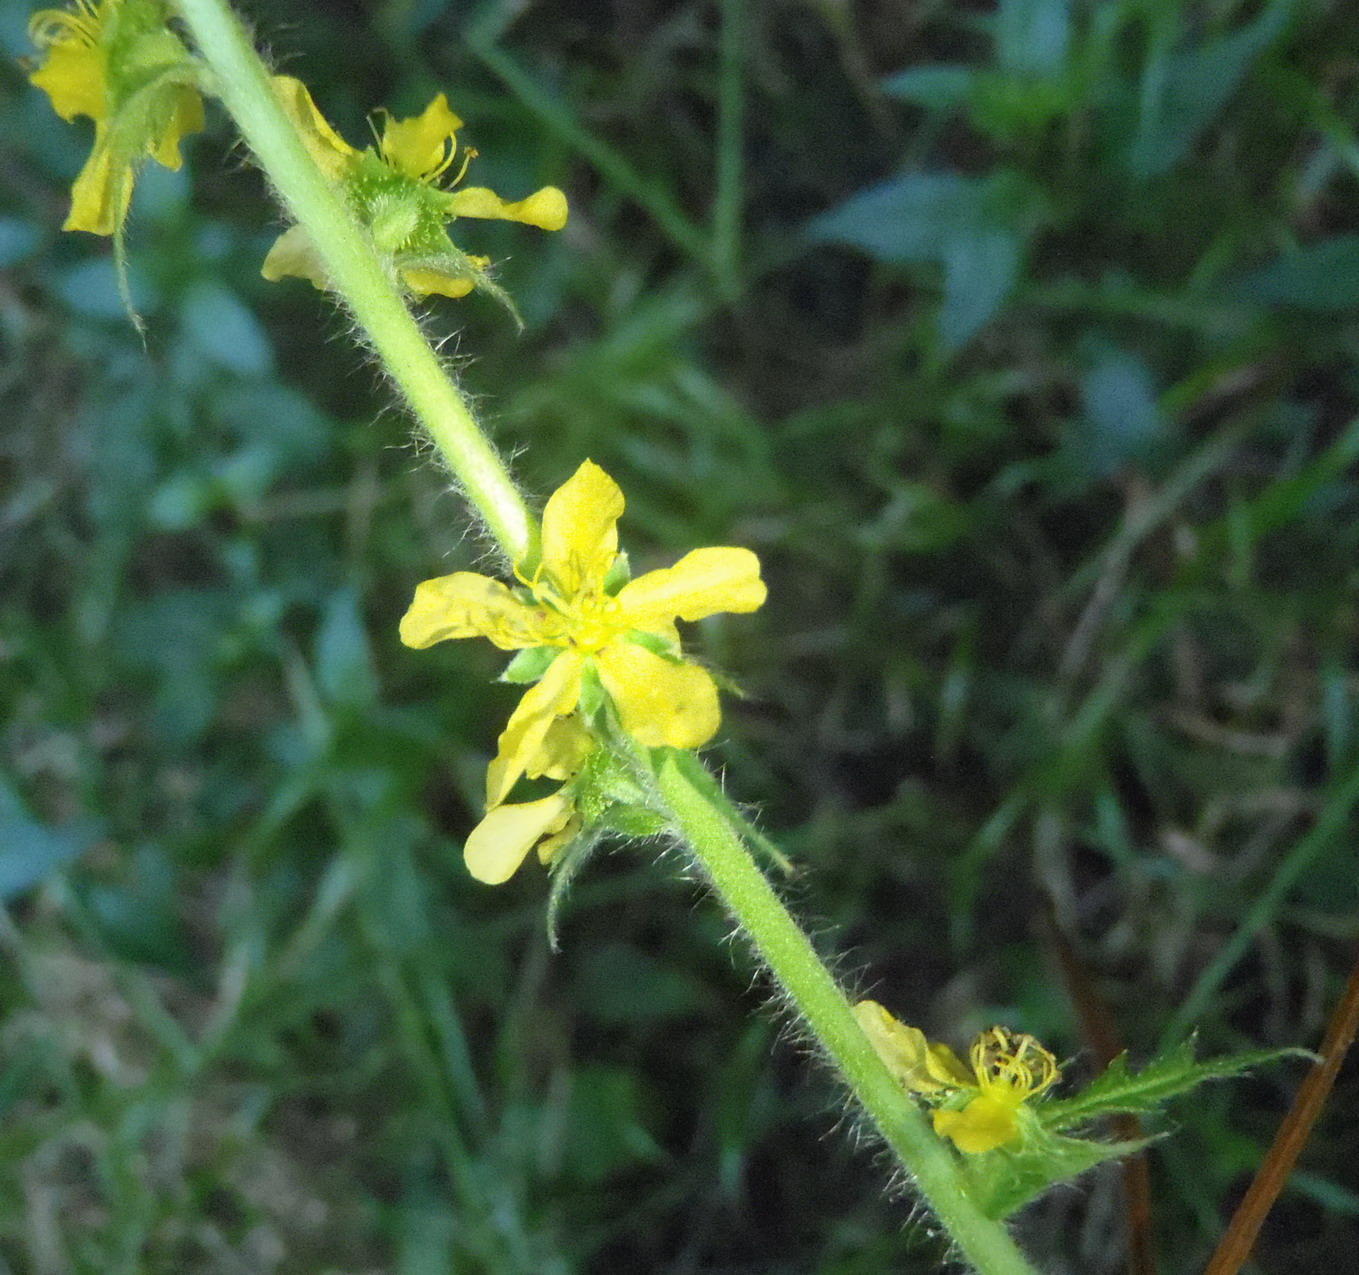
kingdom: Plantae
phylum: Tracheophyta
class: Magnoliopsida
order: Rosales
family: Rosaceae
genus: Agrimonia
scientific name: Agrimonia bracteata
